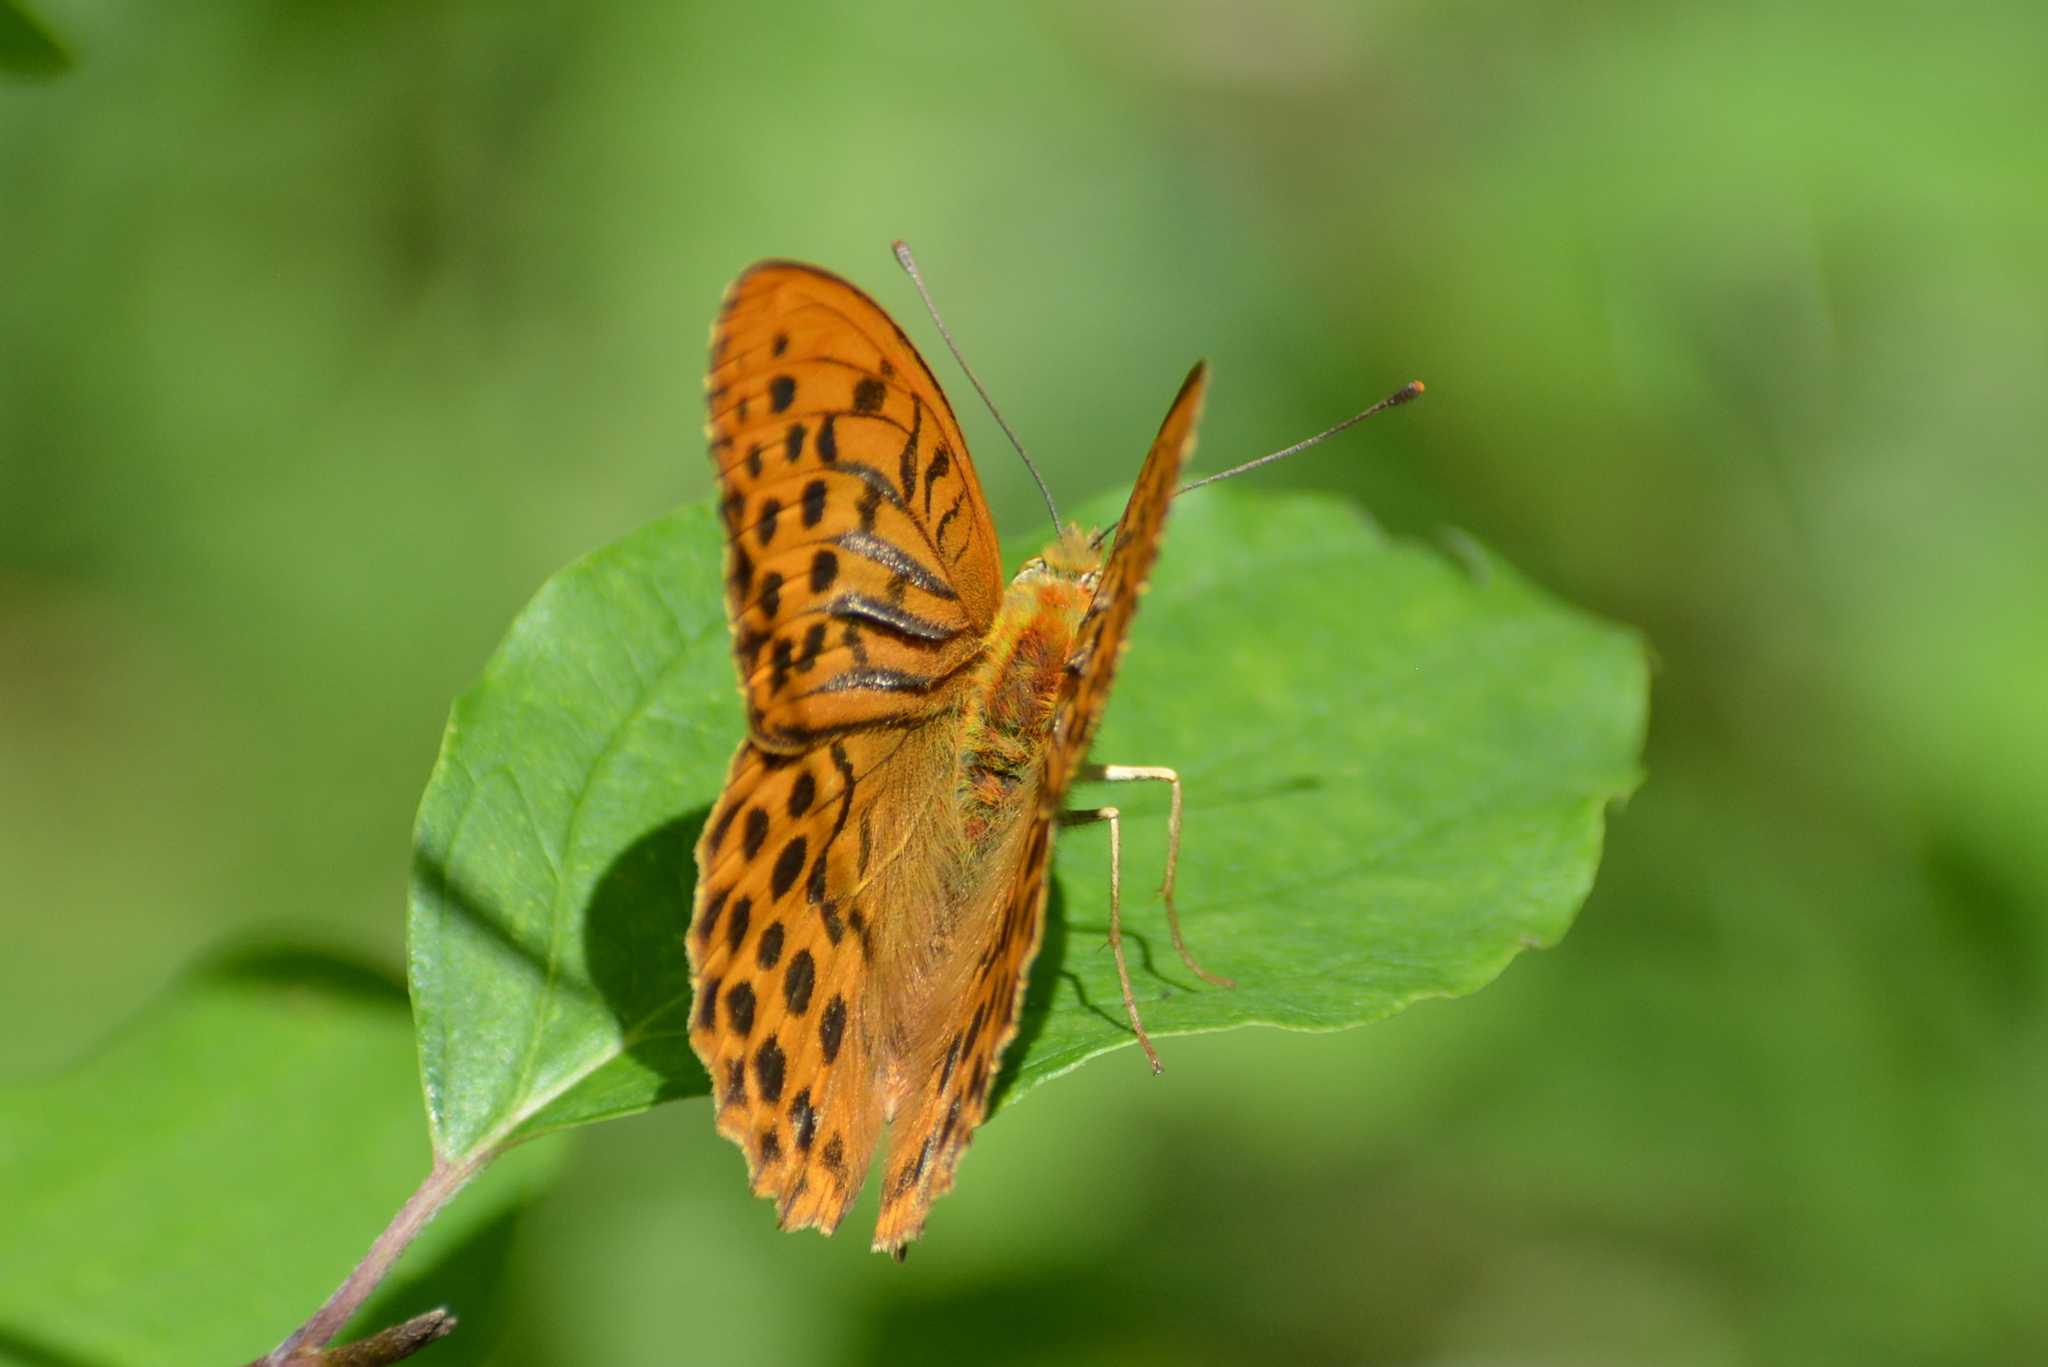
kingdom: Animalia
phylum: Arthropoda
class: Insecta
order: Lepidoptera
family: Nymphalidae
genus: Argynnis
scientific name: Argynnis paphia
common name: Silver-washed fritillary
